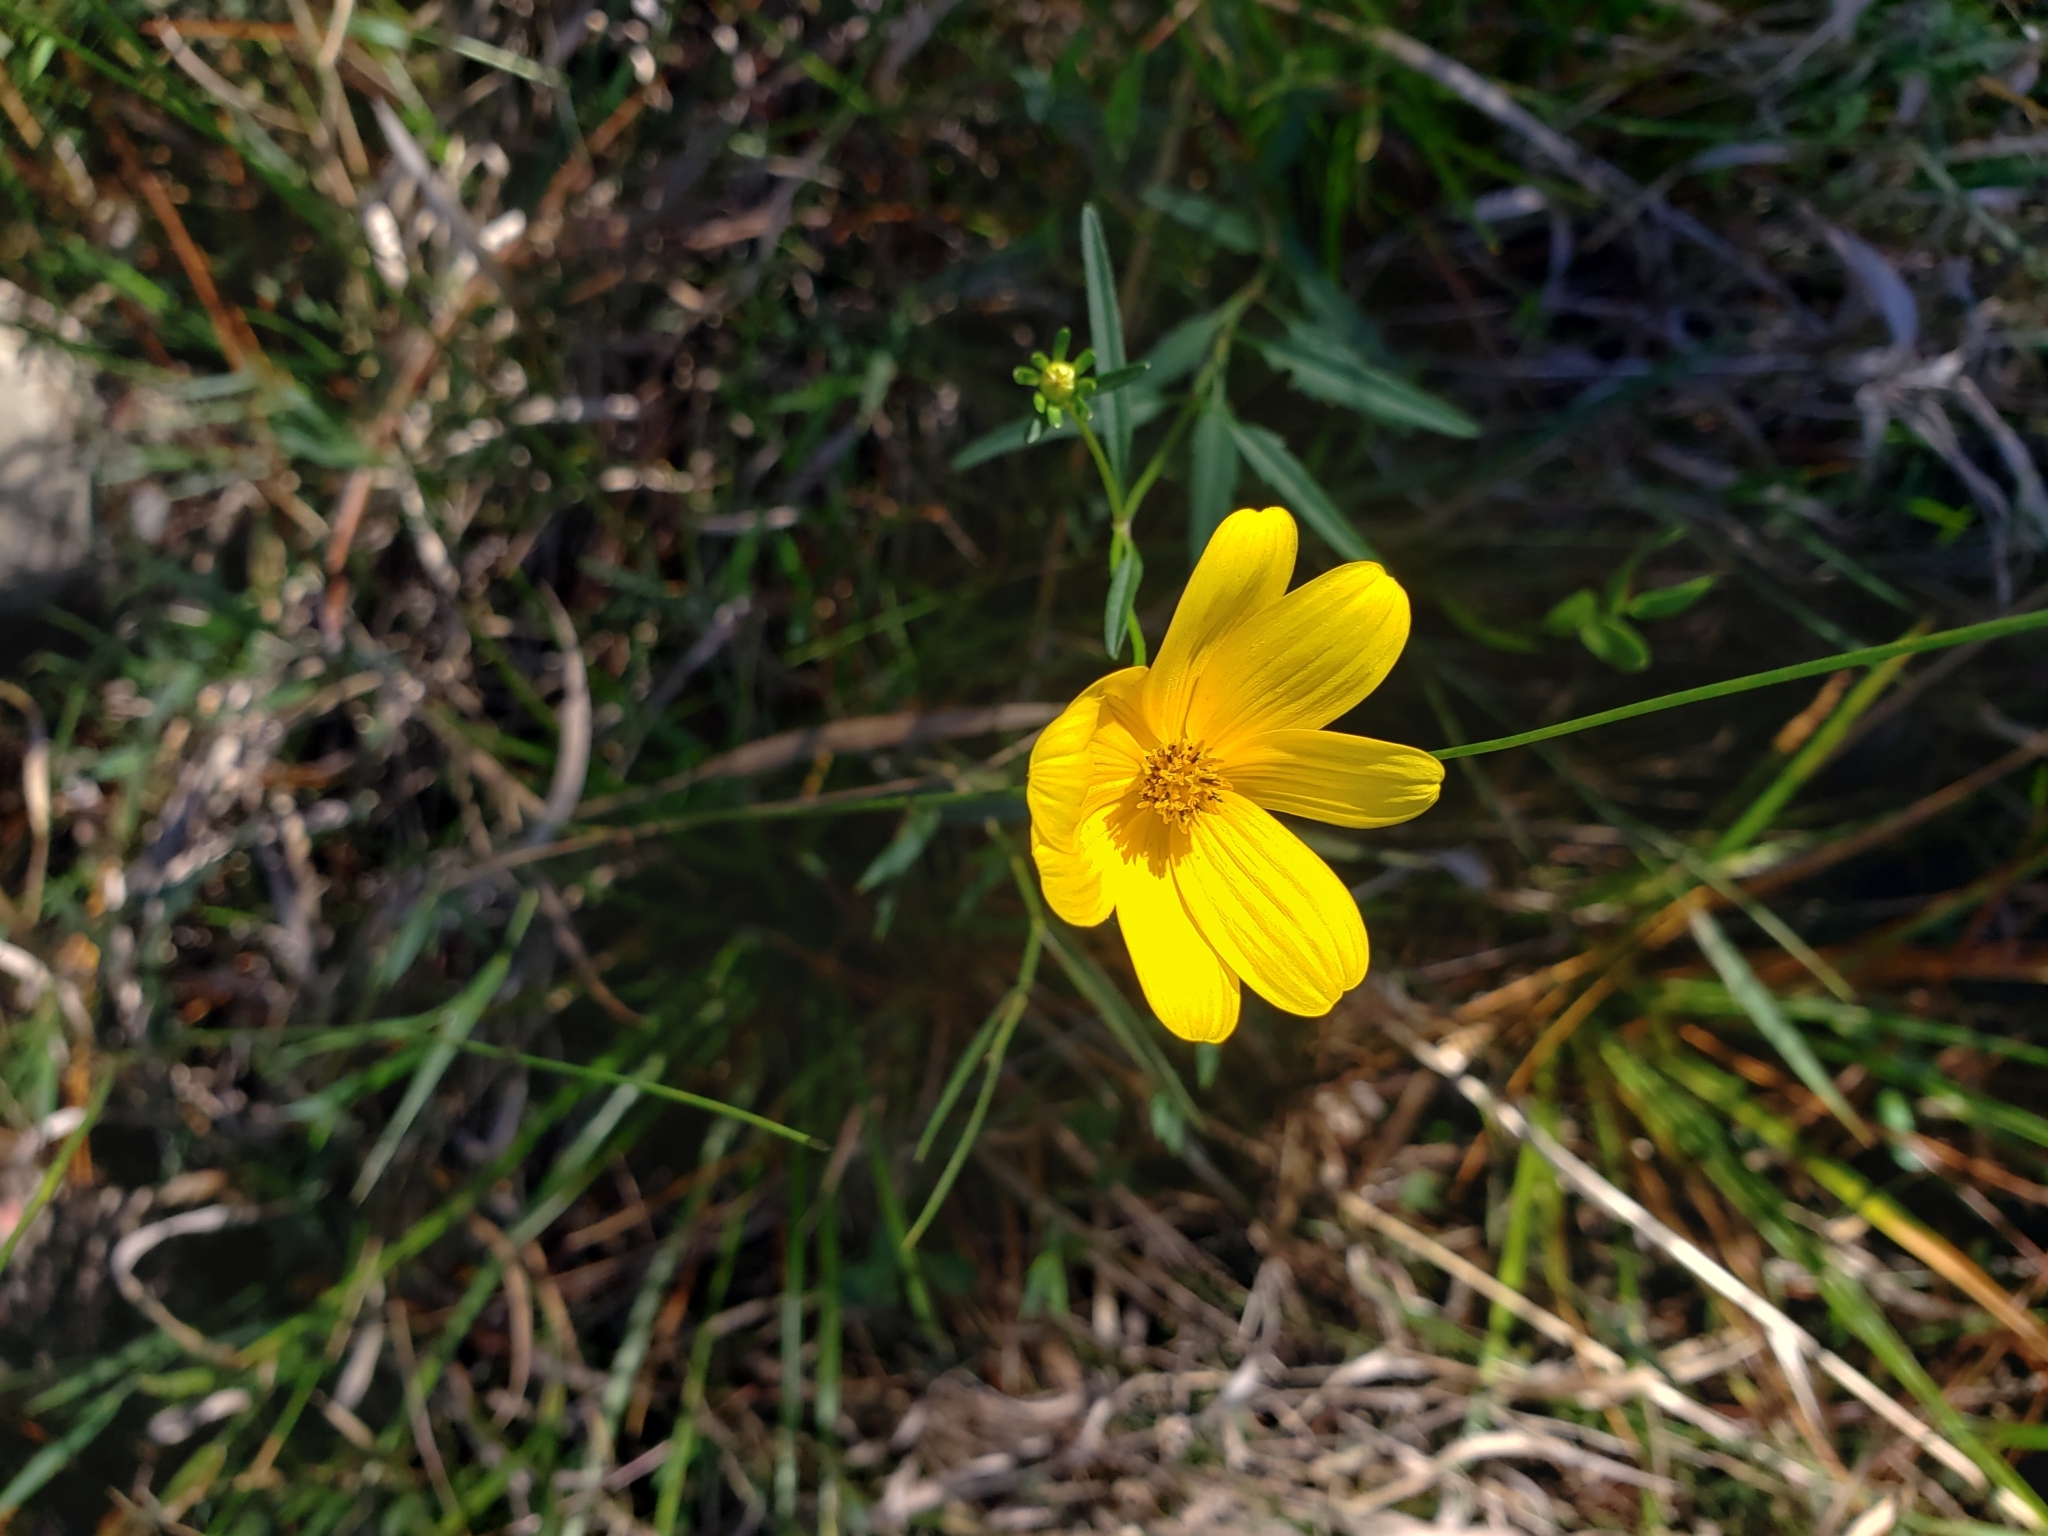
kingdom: Plantae
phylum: Tracheophyta
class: Magnoliopsida
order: Asterales
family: Asteraceae
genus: Bidens
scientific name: Bidens mitis
